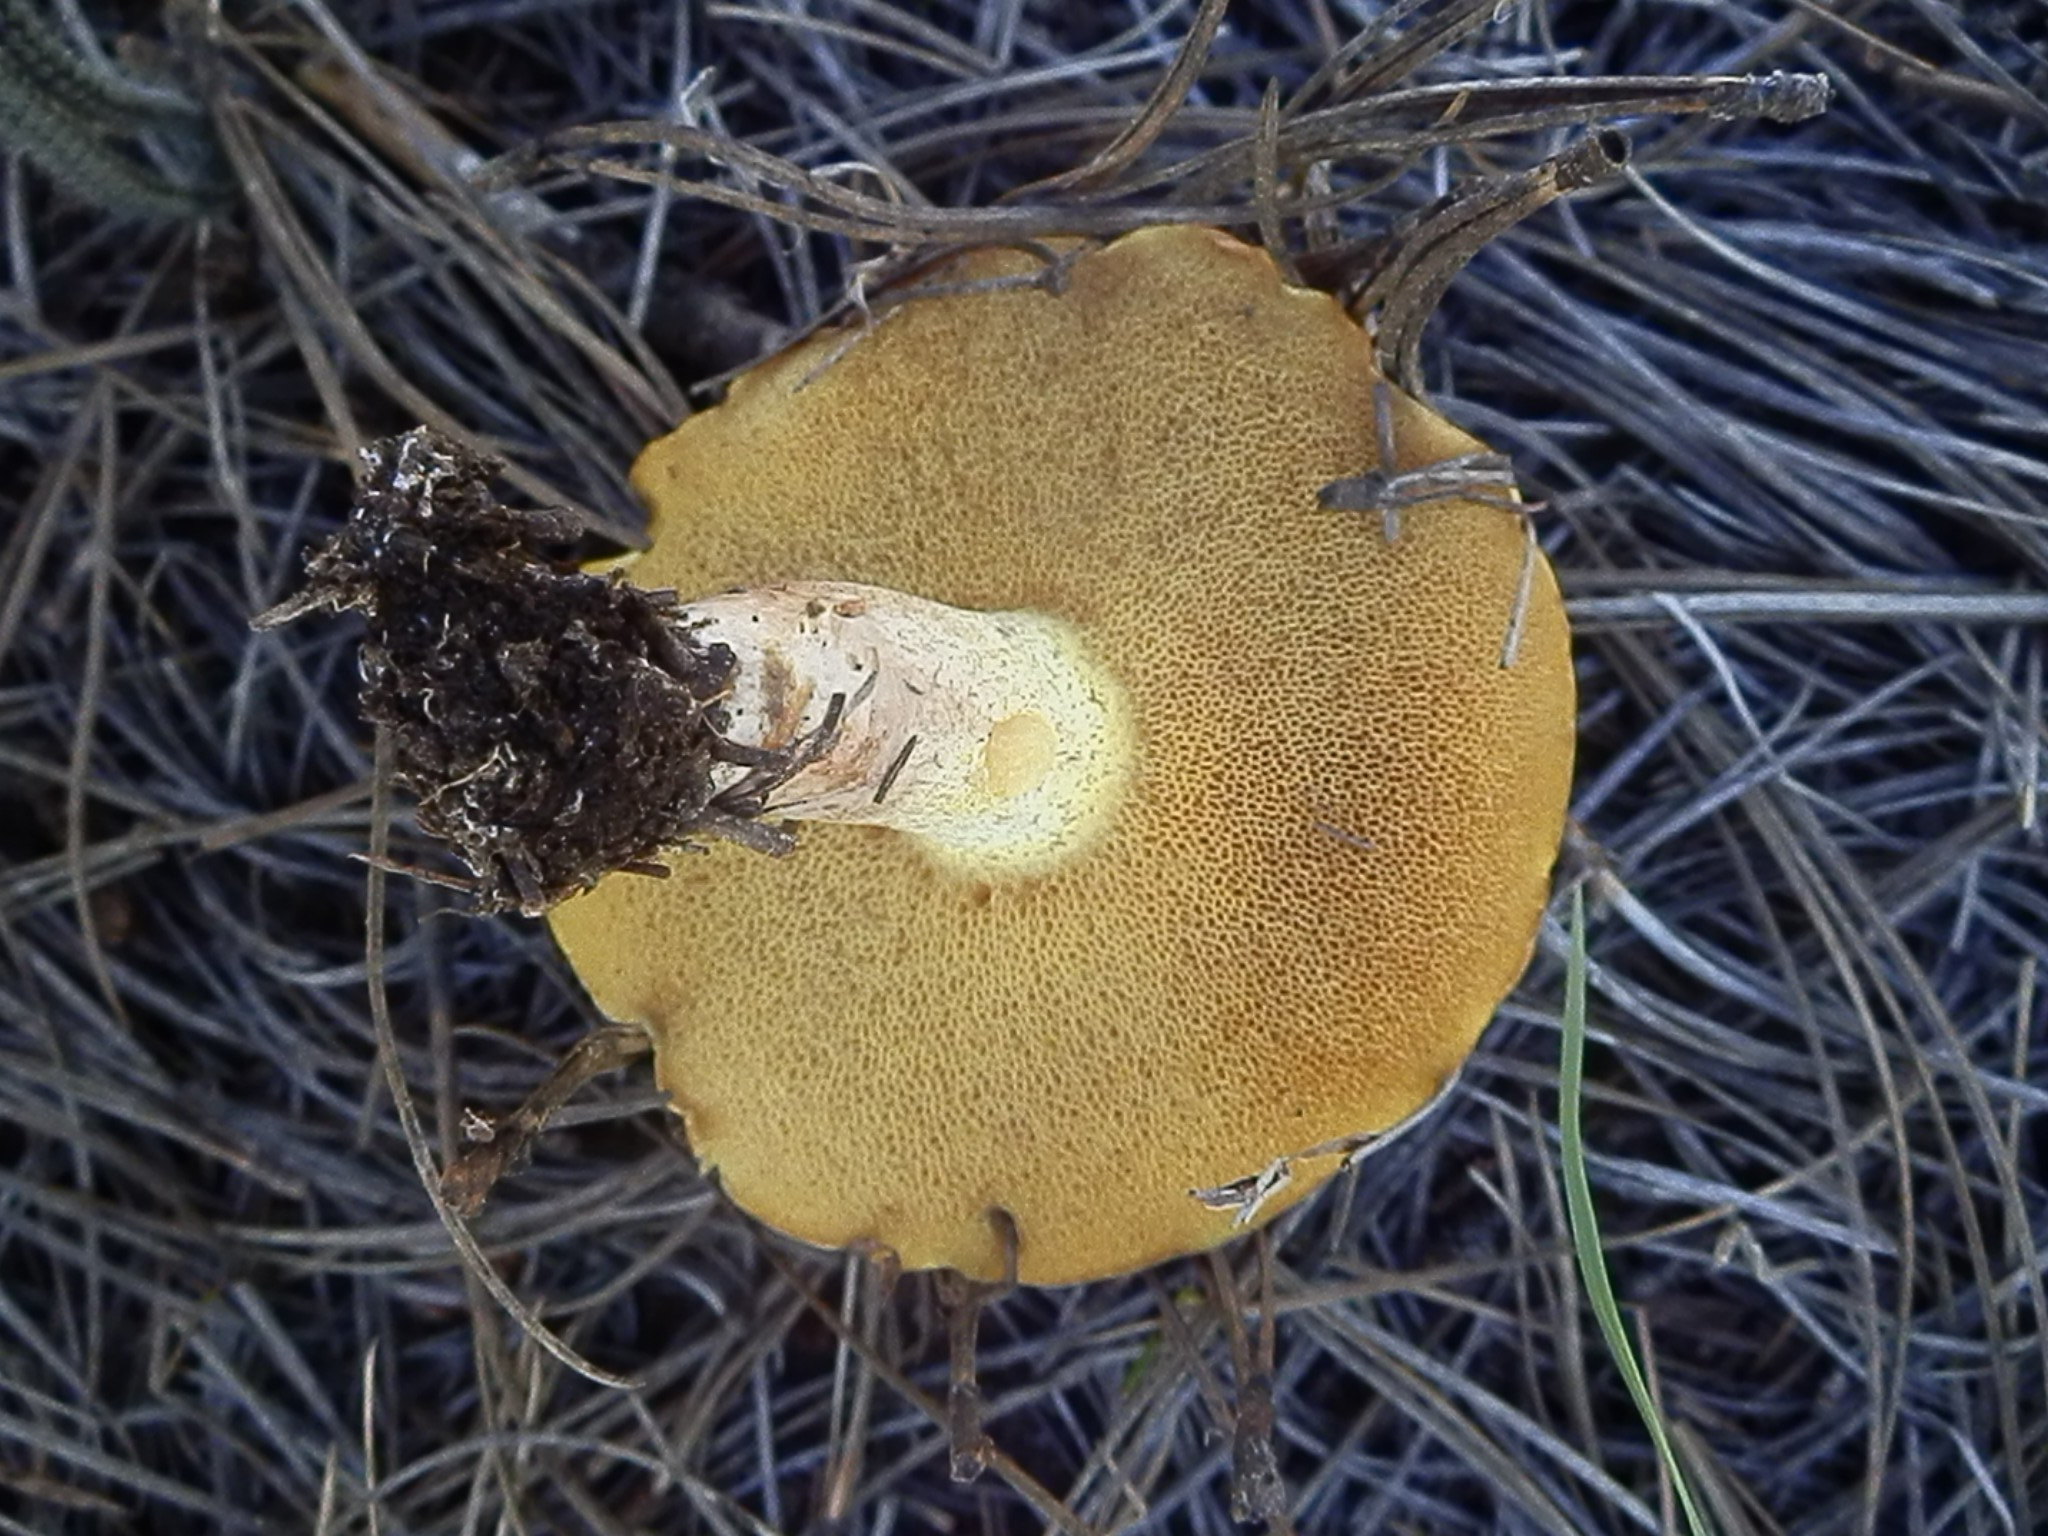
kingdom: Fungi
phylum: Basidiomycota
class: Agaricomycetes
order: Boletales
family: Suillaceae
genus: Suillus
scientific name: Suillus kaibabensis
